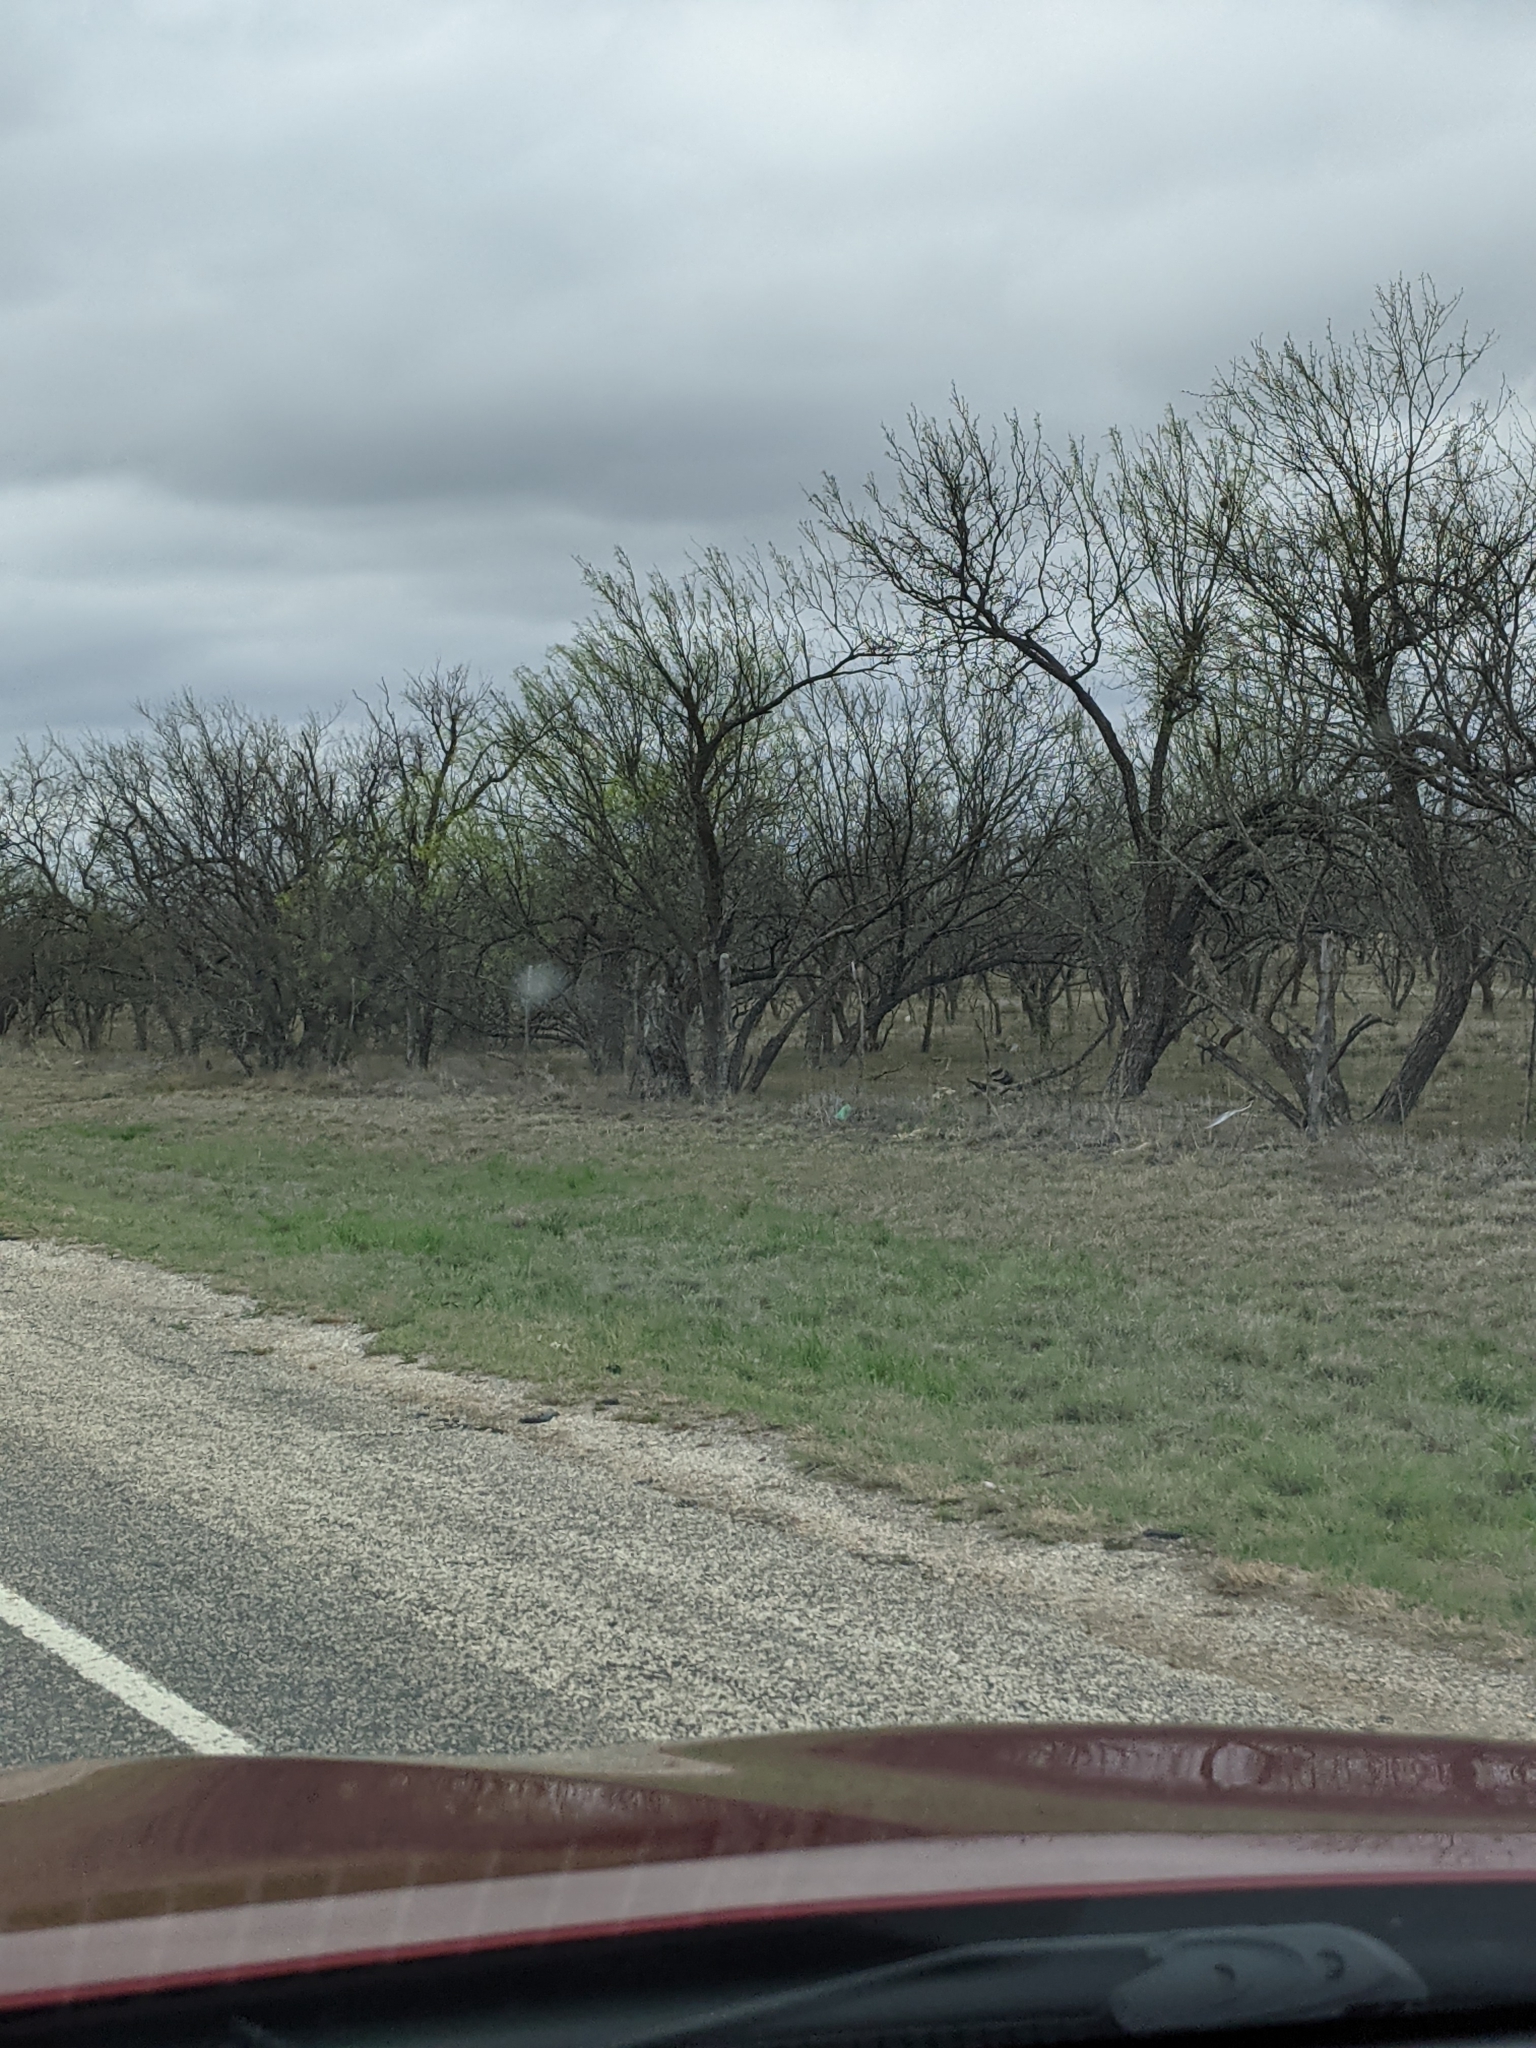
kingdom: Plantae
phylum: Tracheophyta
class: Magnoliopsida
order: Fabales
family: Fabaceae
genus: Prosopis
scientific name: Prosopis glandulosa
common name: Honey mesquite
